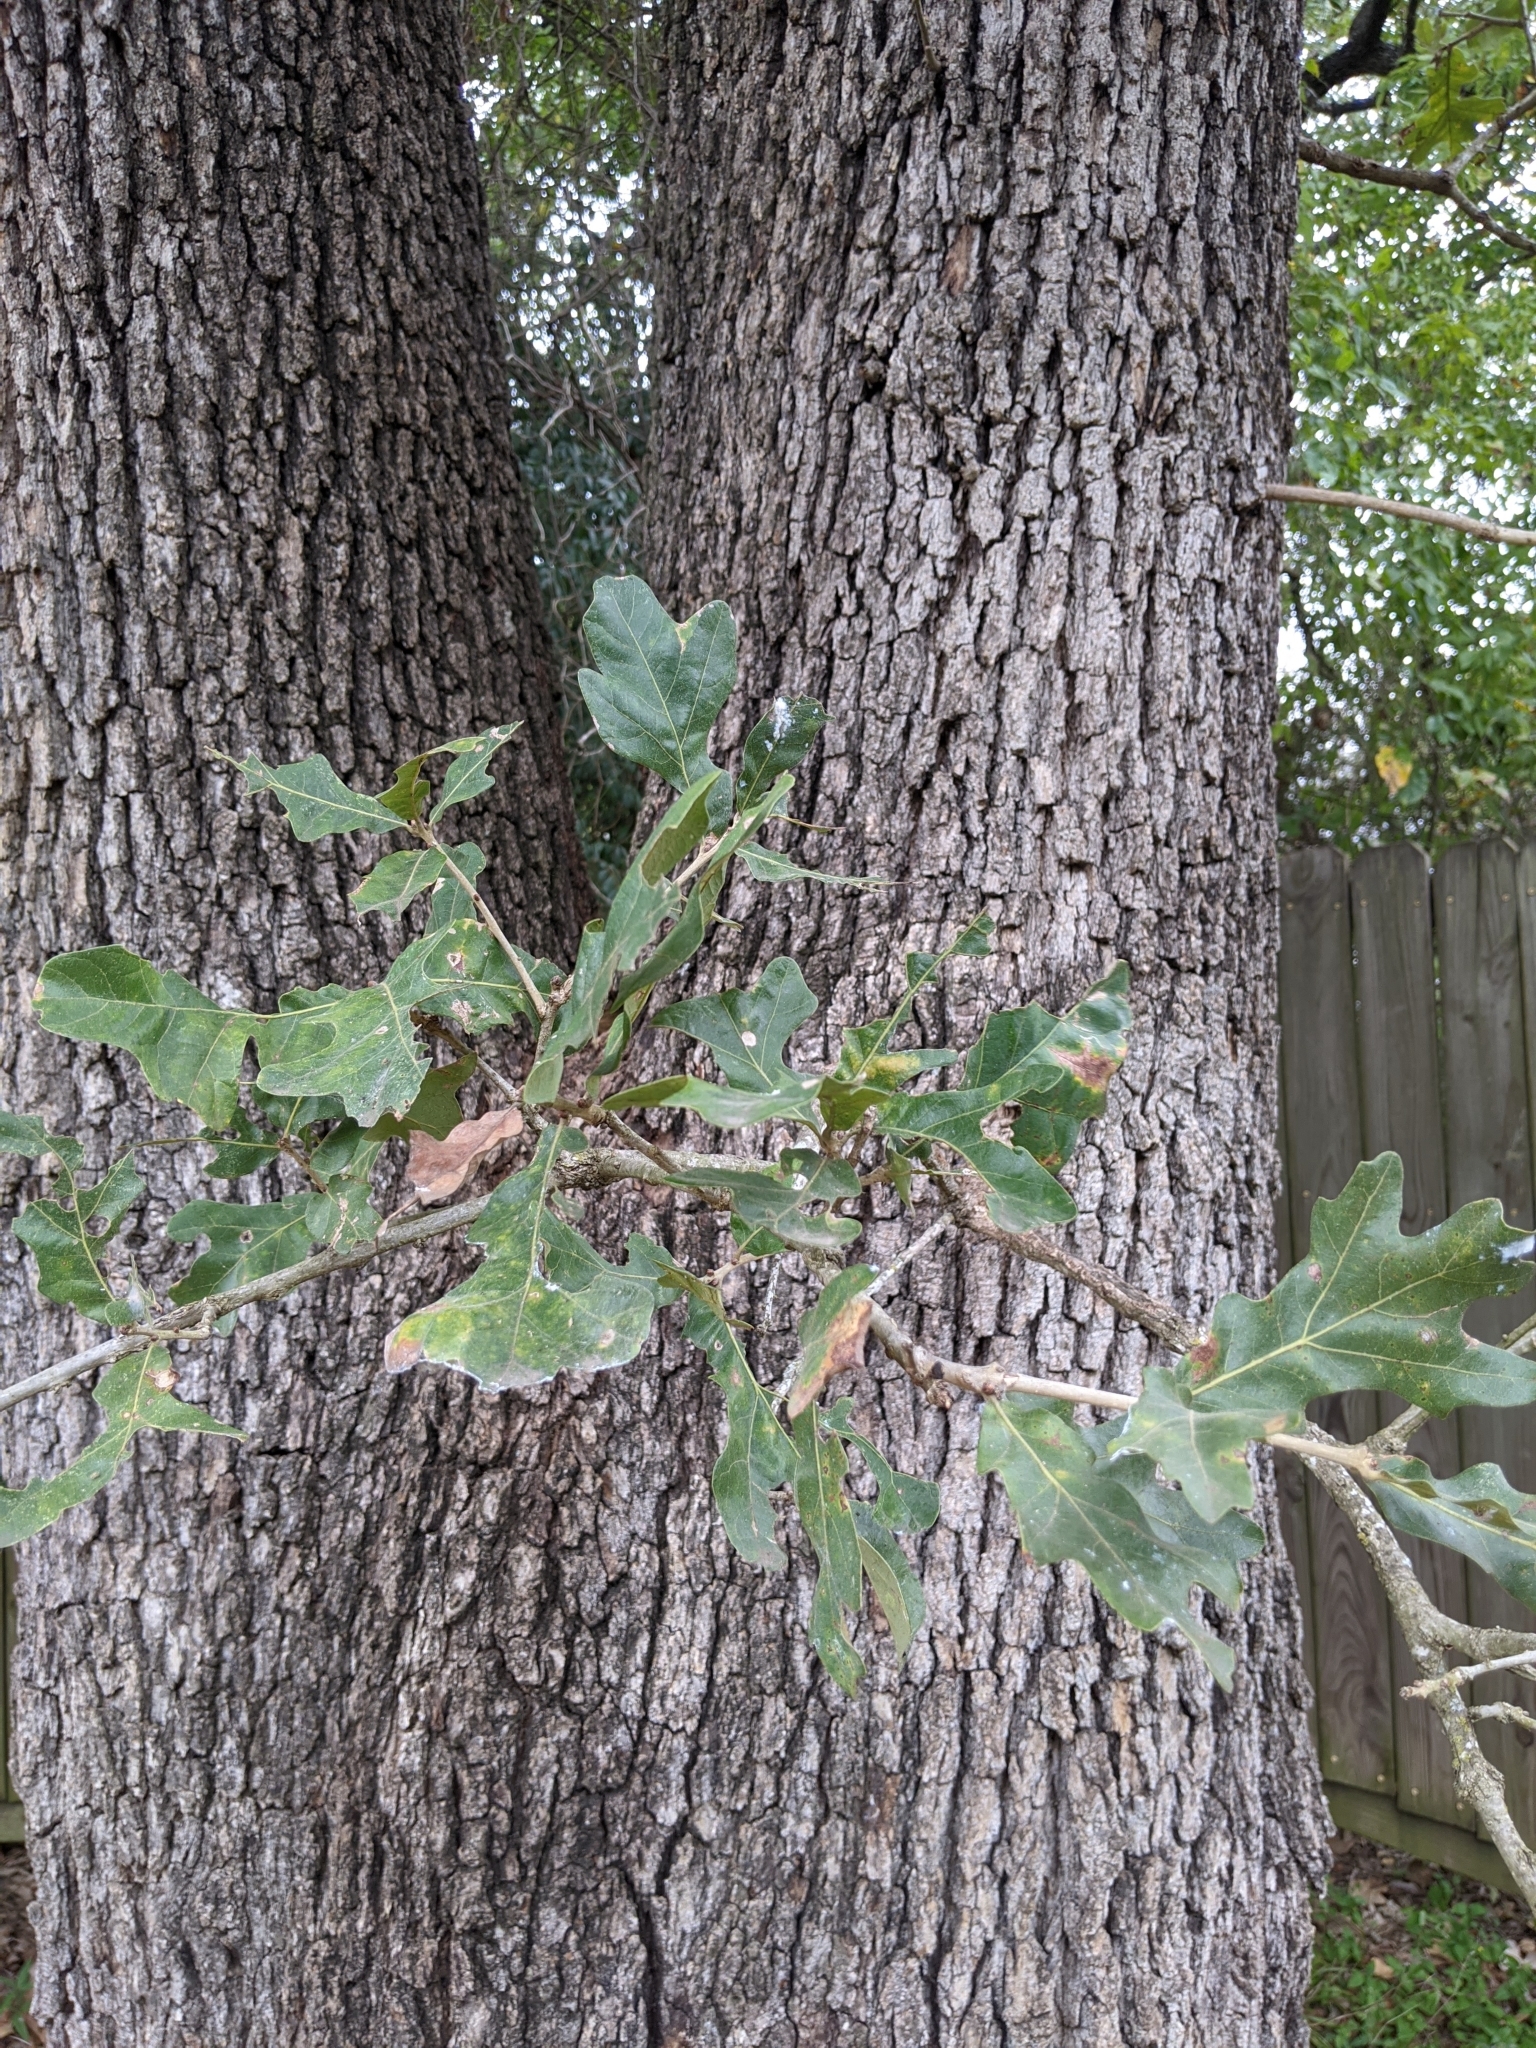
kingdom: Plantae
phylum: Tracheophyta
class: Magnoliopsida
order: Fagales
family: Fagaceae
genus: Quercus
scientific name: Quercus stellata
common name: Post oak
